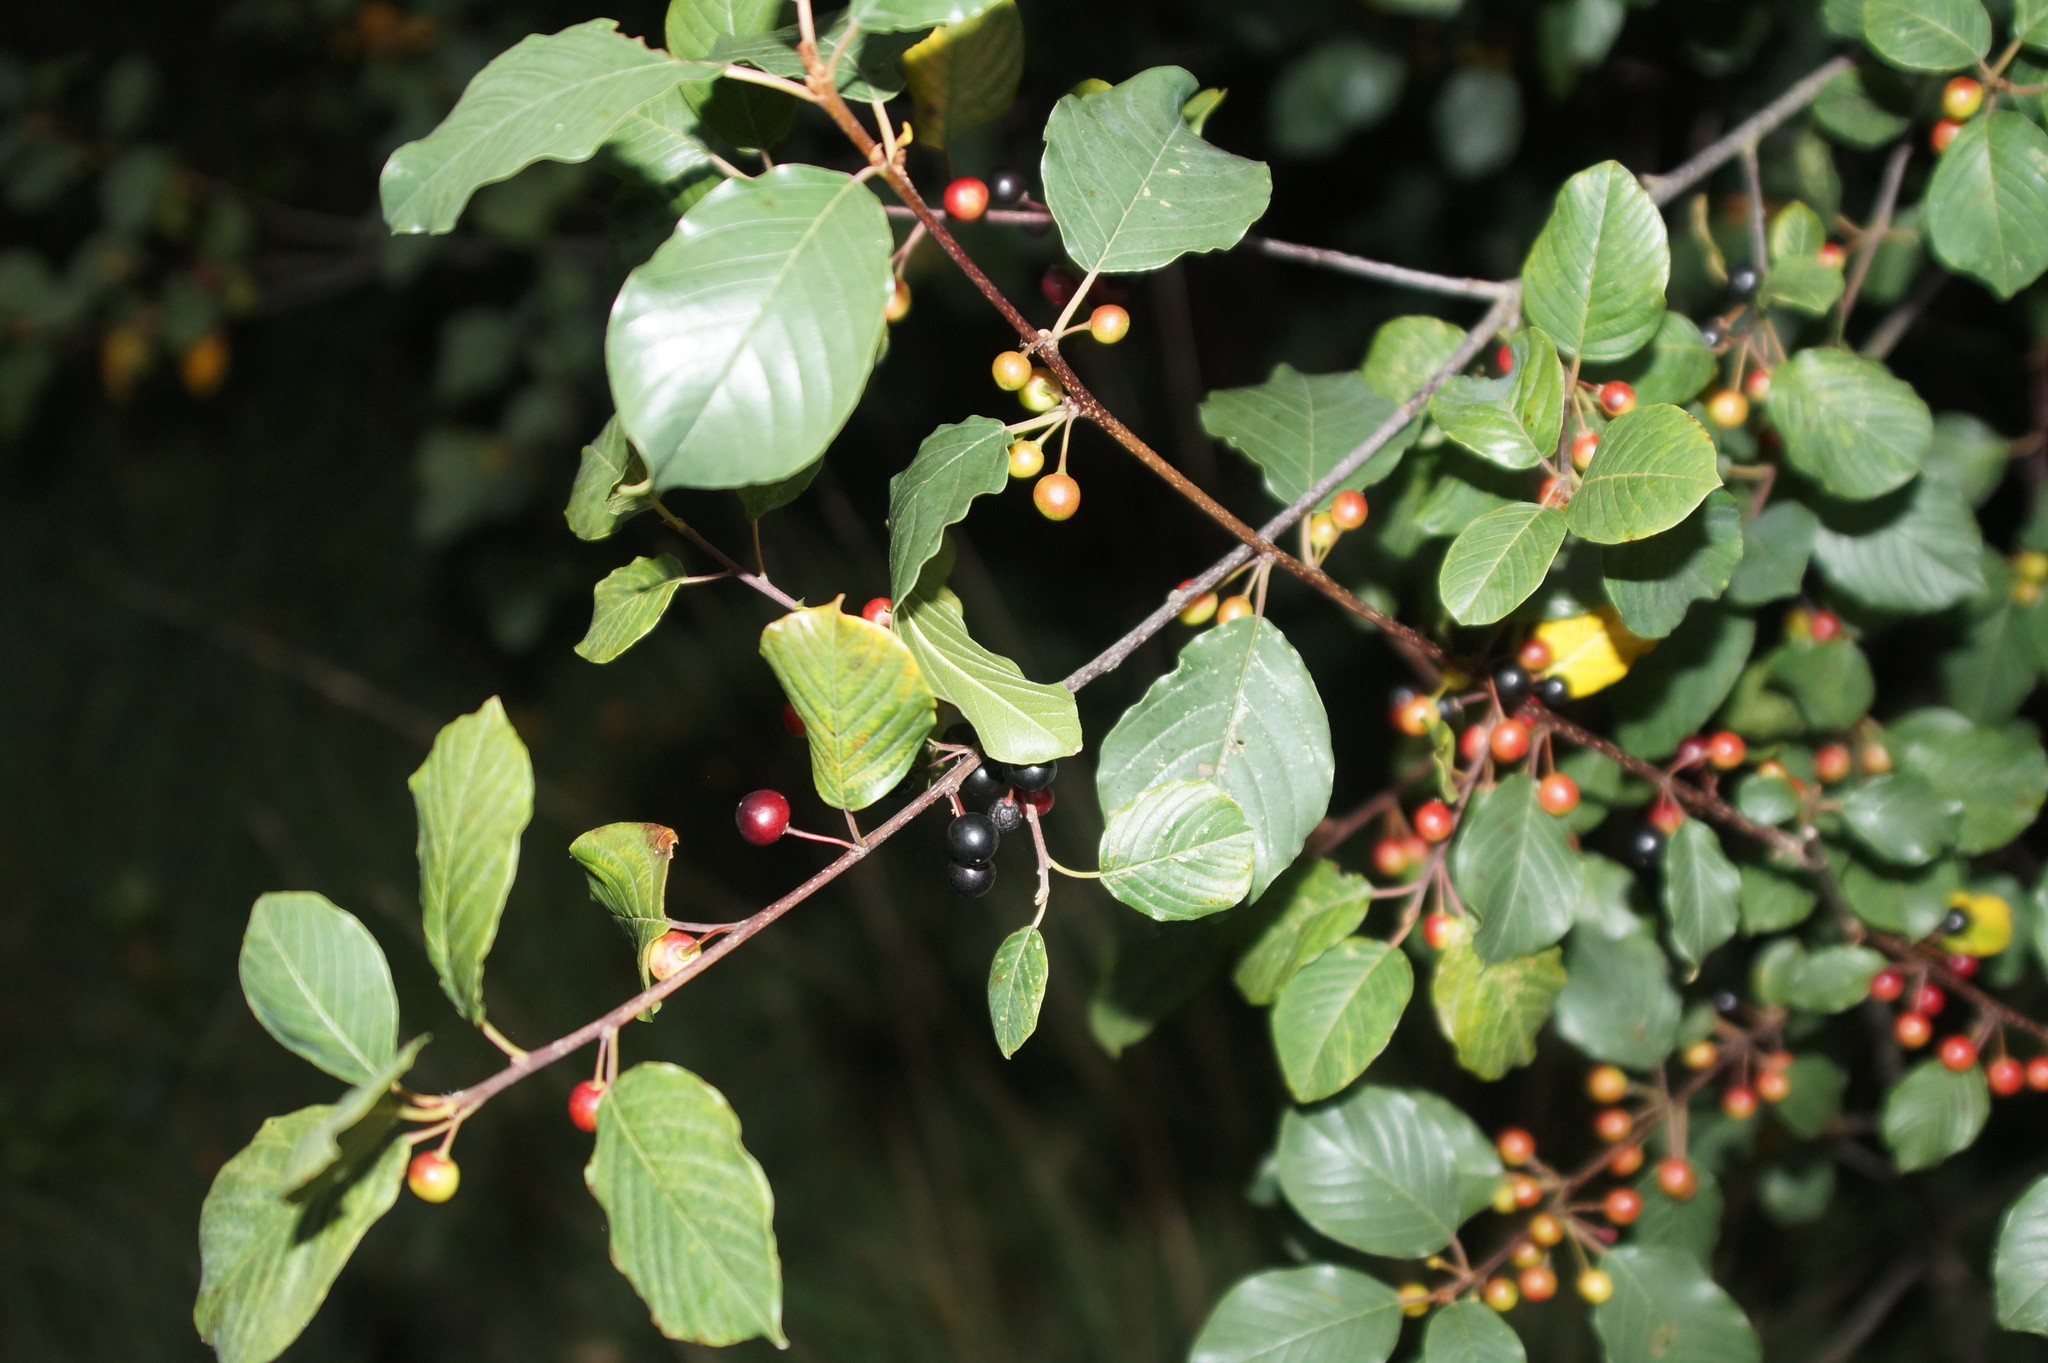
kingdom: Plantae
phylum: Tracheophyta
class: Magnoliopsida
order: Rosales
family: Rhamnaceae
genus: Frangula
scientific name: Frangula alnus
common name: Alder buckthorn
